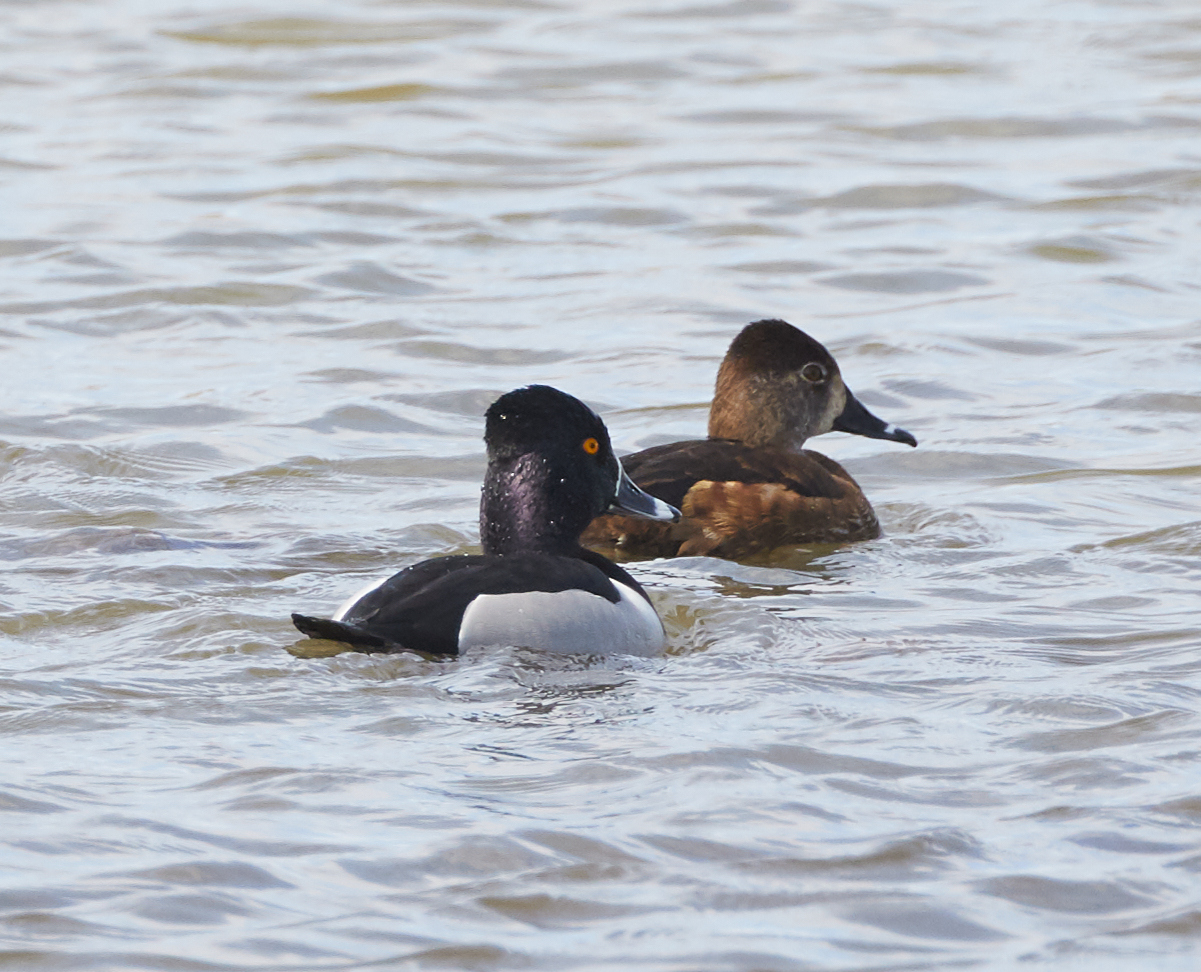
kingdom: Animalia
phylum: Chordata
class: Aves
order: Anseriformes
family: Anatidae
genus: Aythya
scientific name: Aythya collaris
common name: Ring-necked duck
